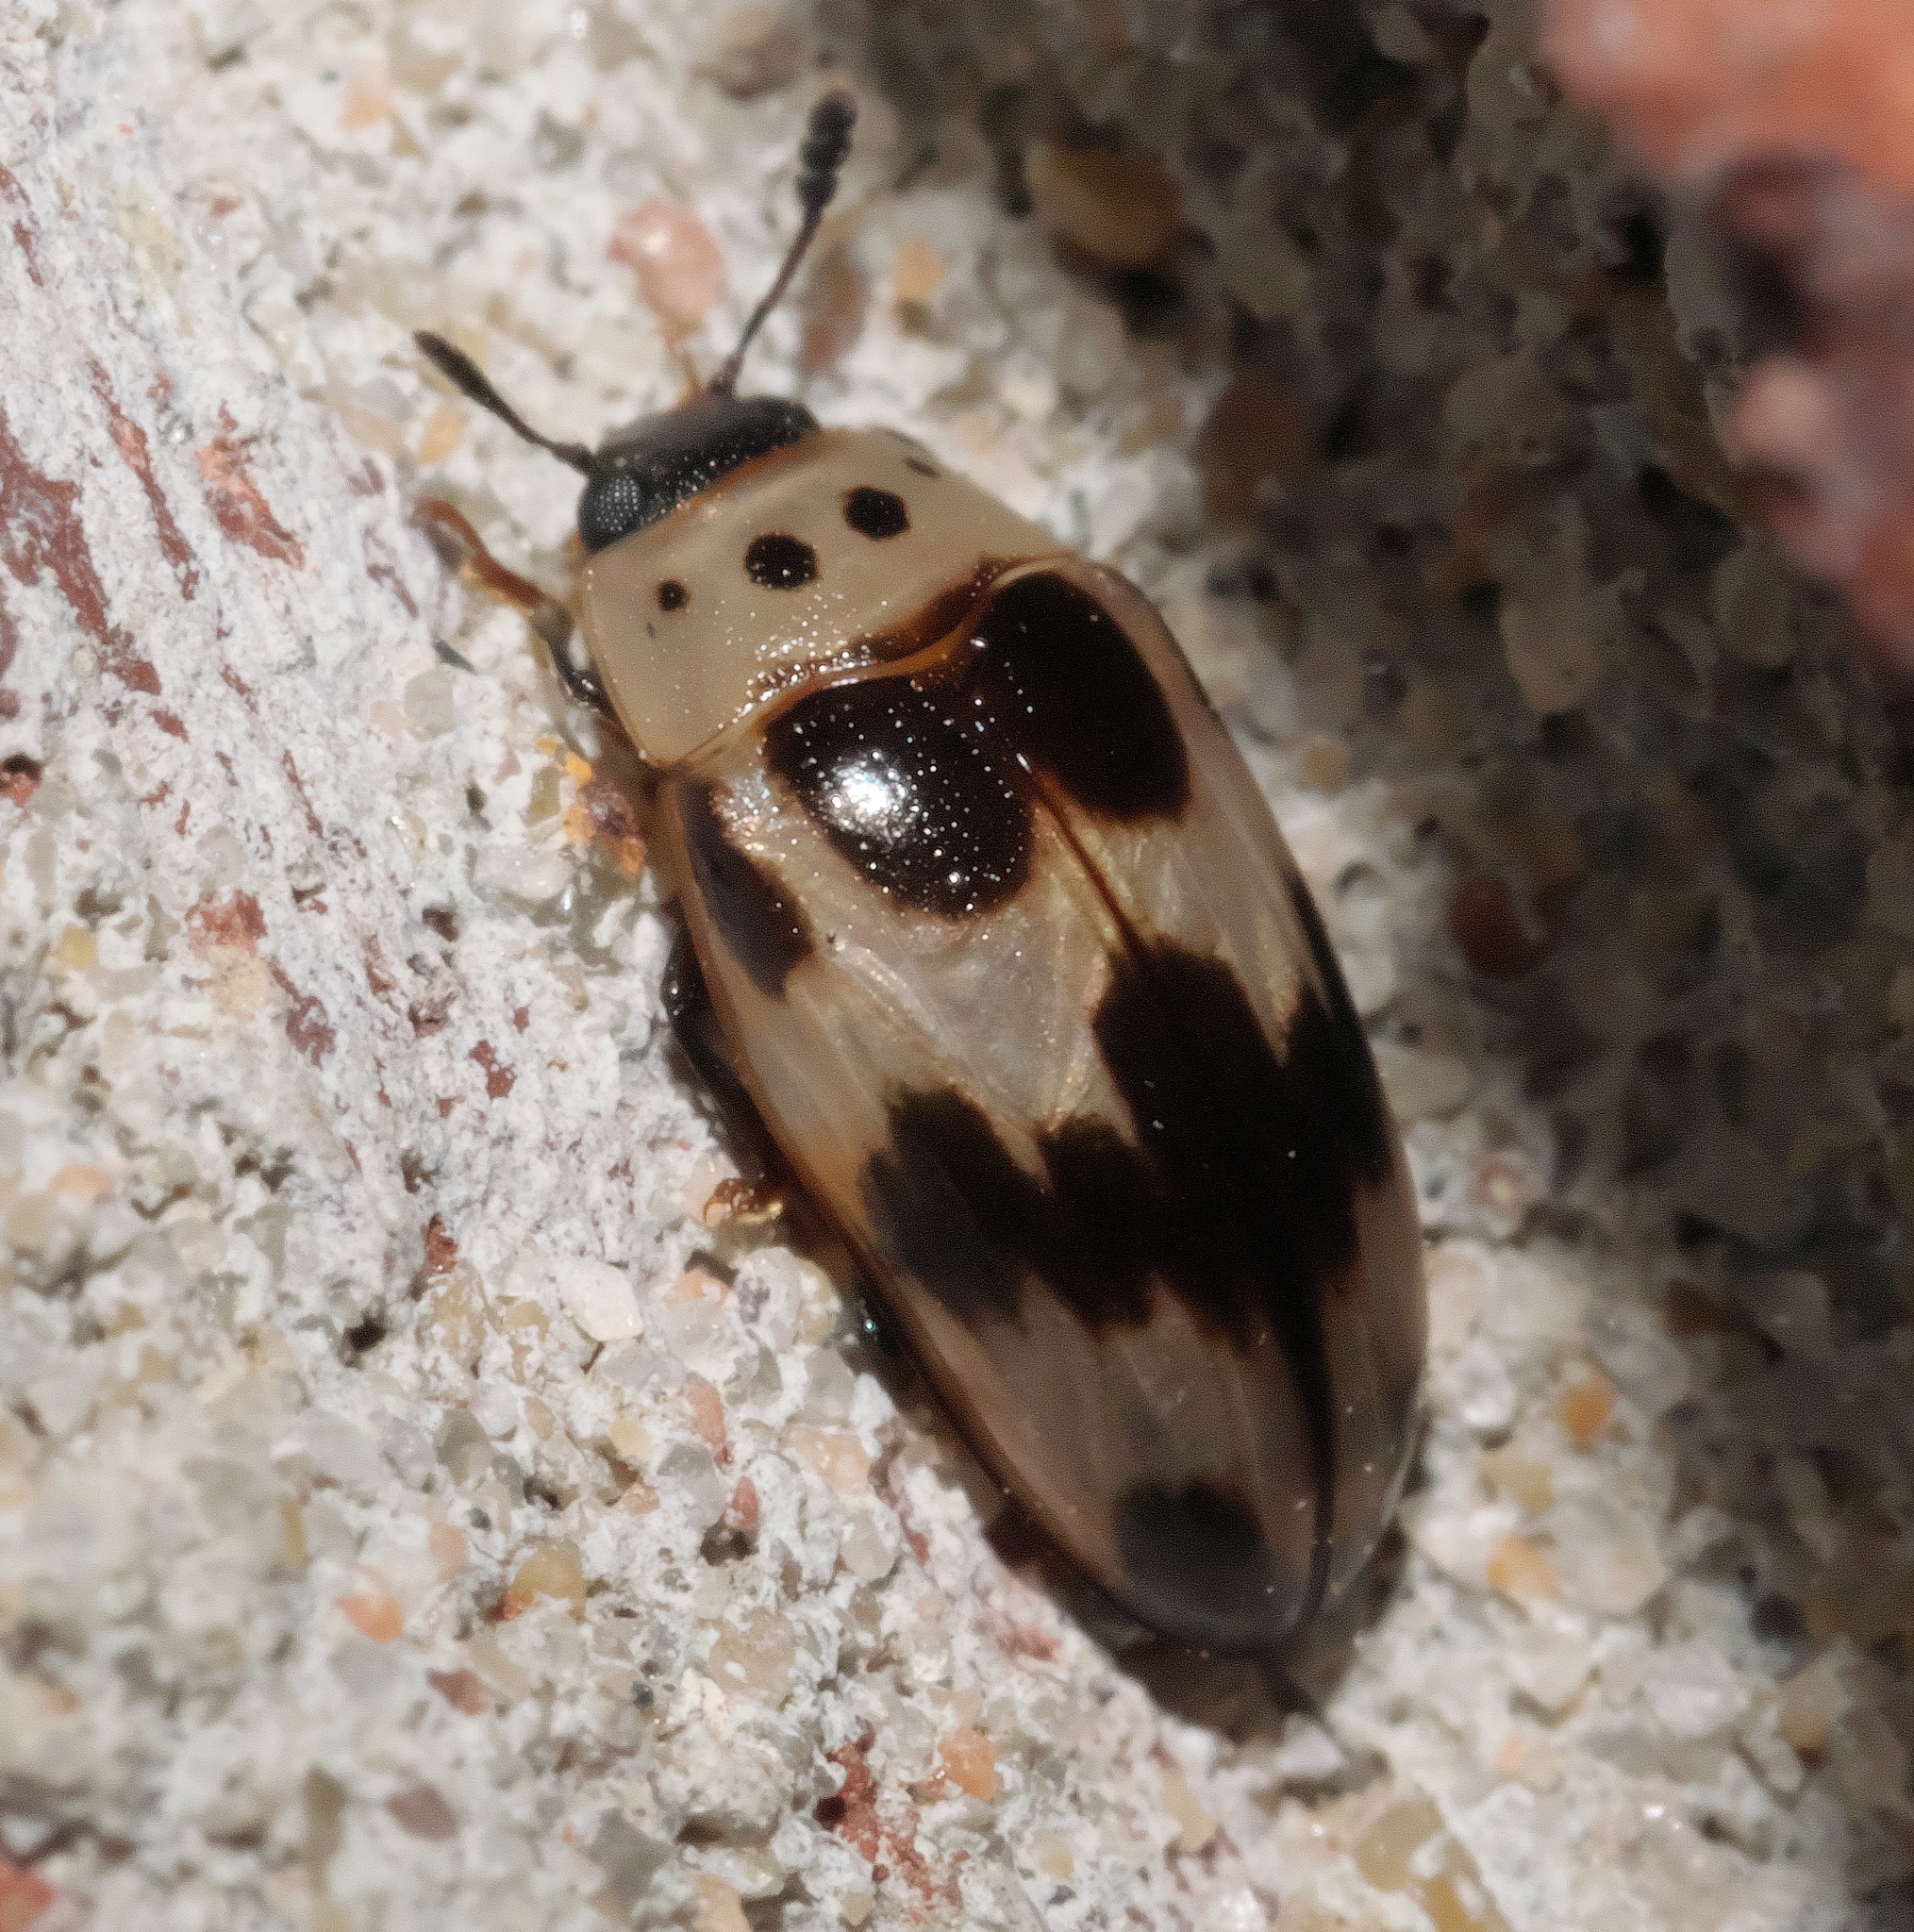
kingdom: Animalia
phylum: Arthropoda
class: Insecta
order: Coleoptera
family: Erotylidae
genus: Ischyrus
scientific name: Ischyrus quadripunctatus
